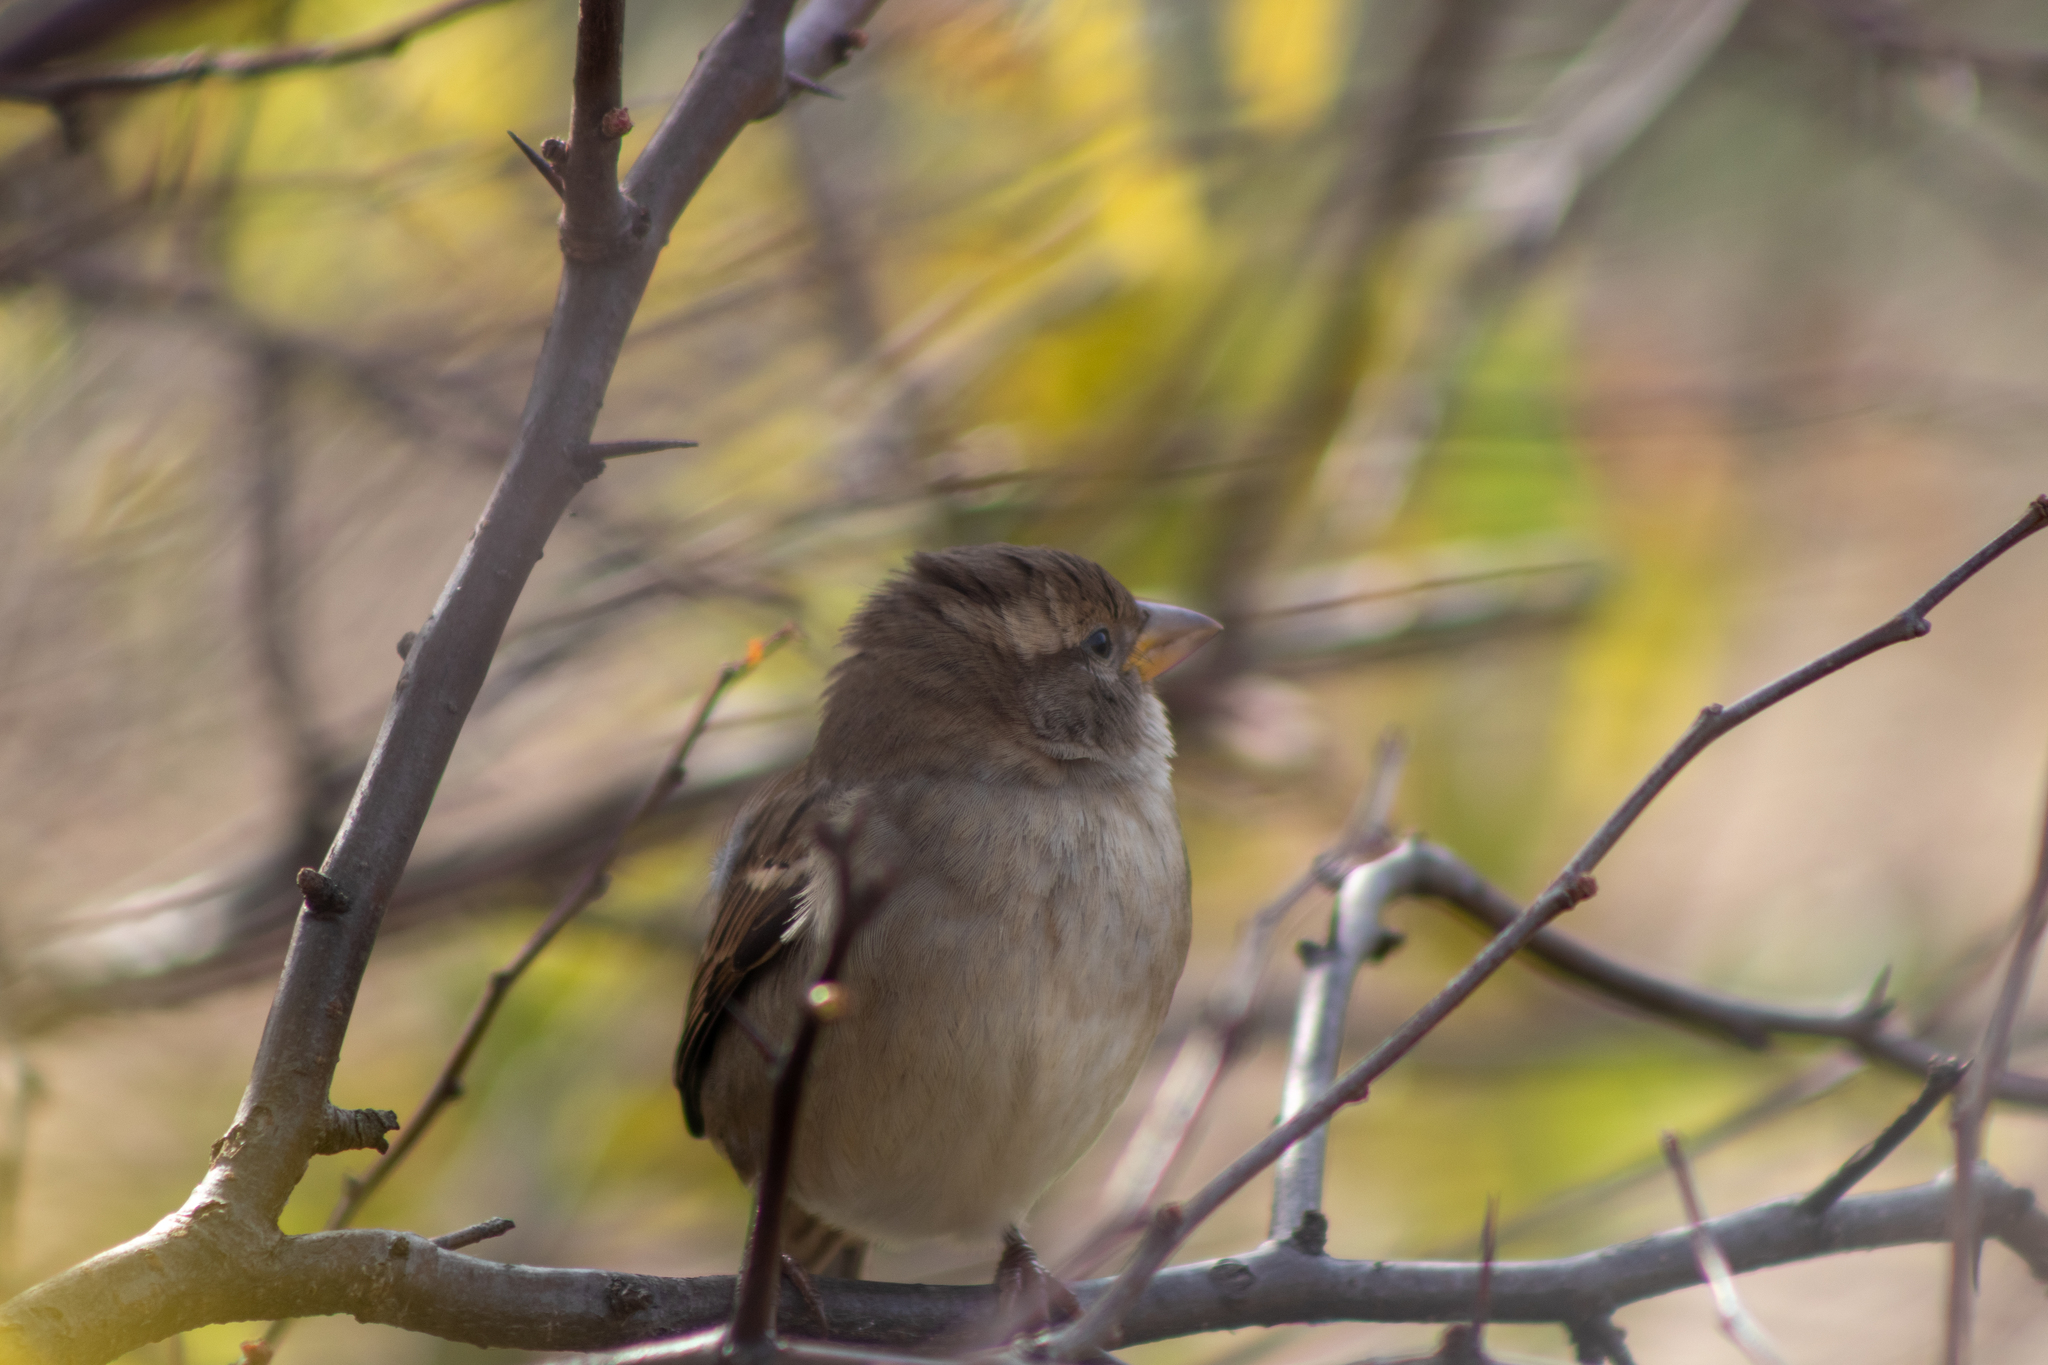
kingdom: Animalia
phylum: Chordata
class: Aves
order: Passeriformes
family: Passeridae
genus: Passer
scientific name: Passer domesticus
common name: House sparrow
